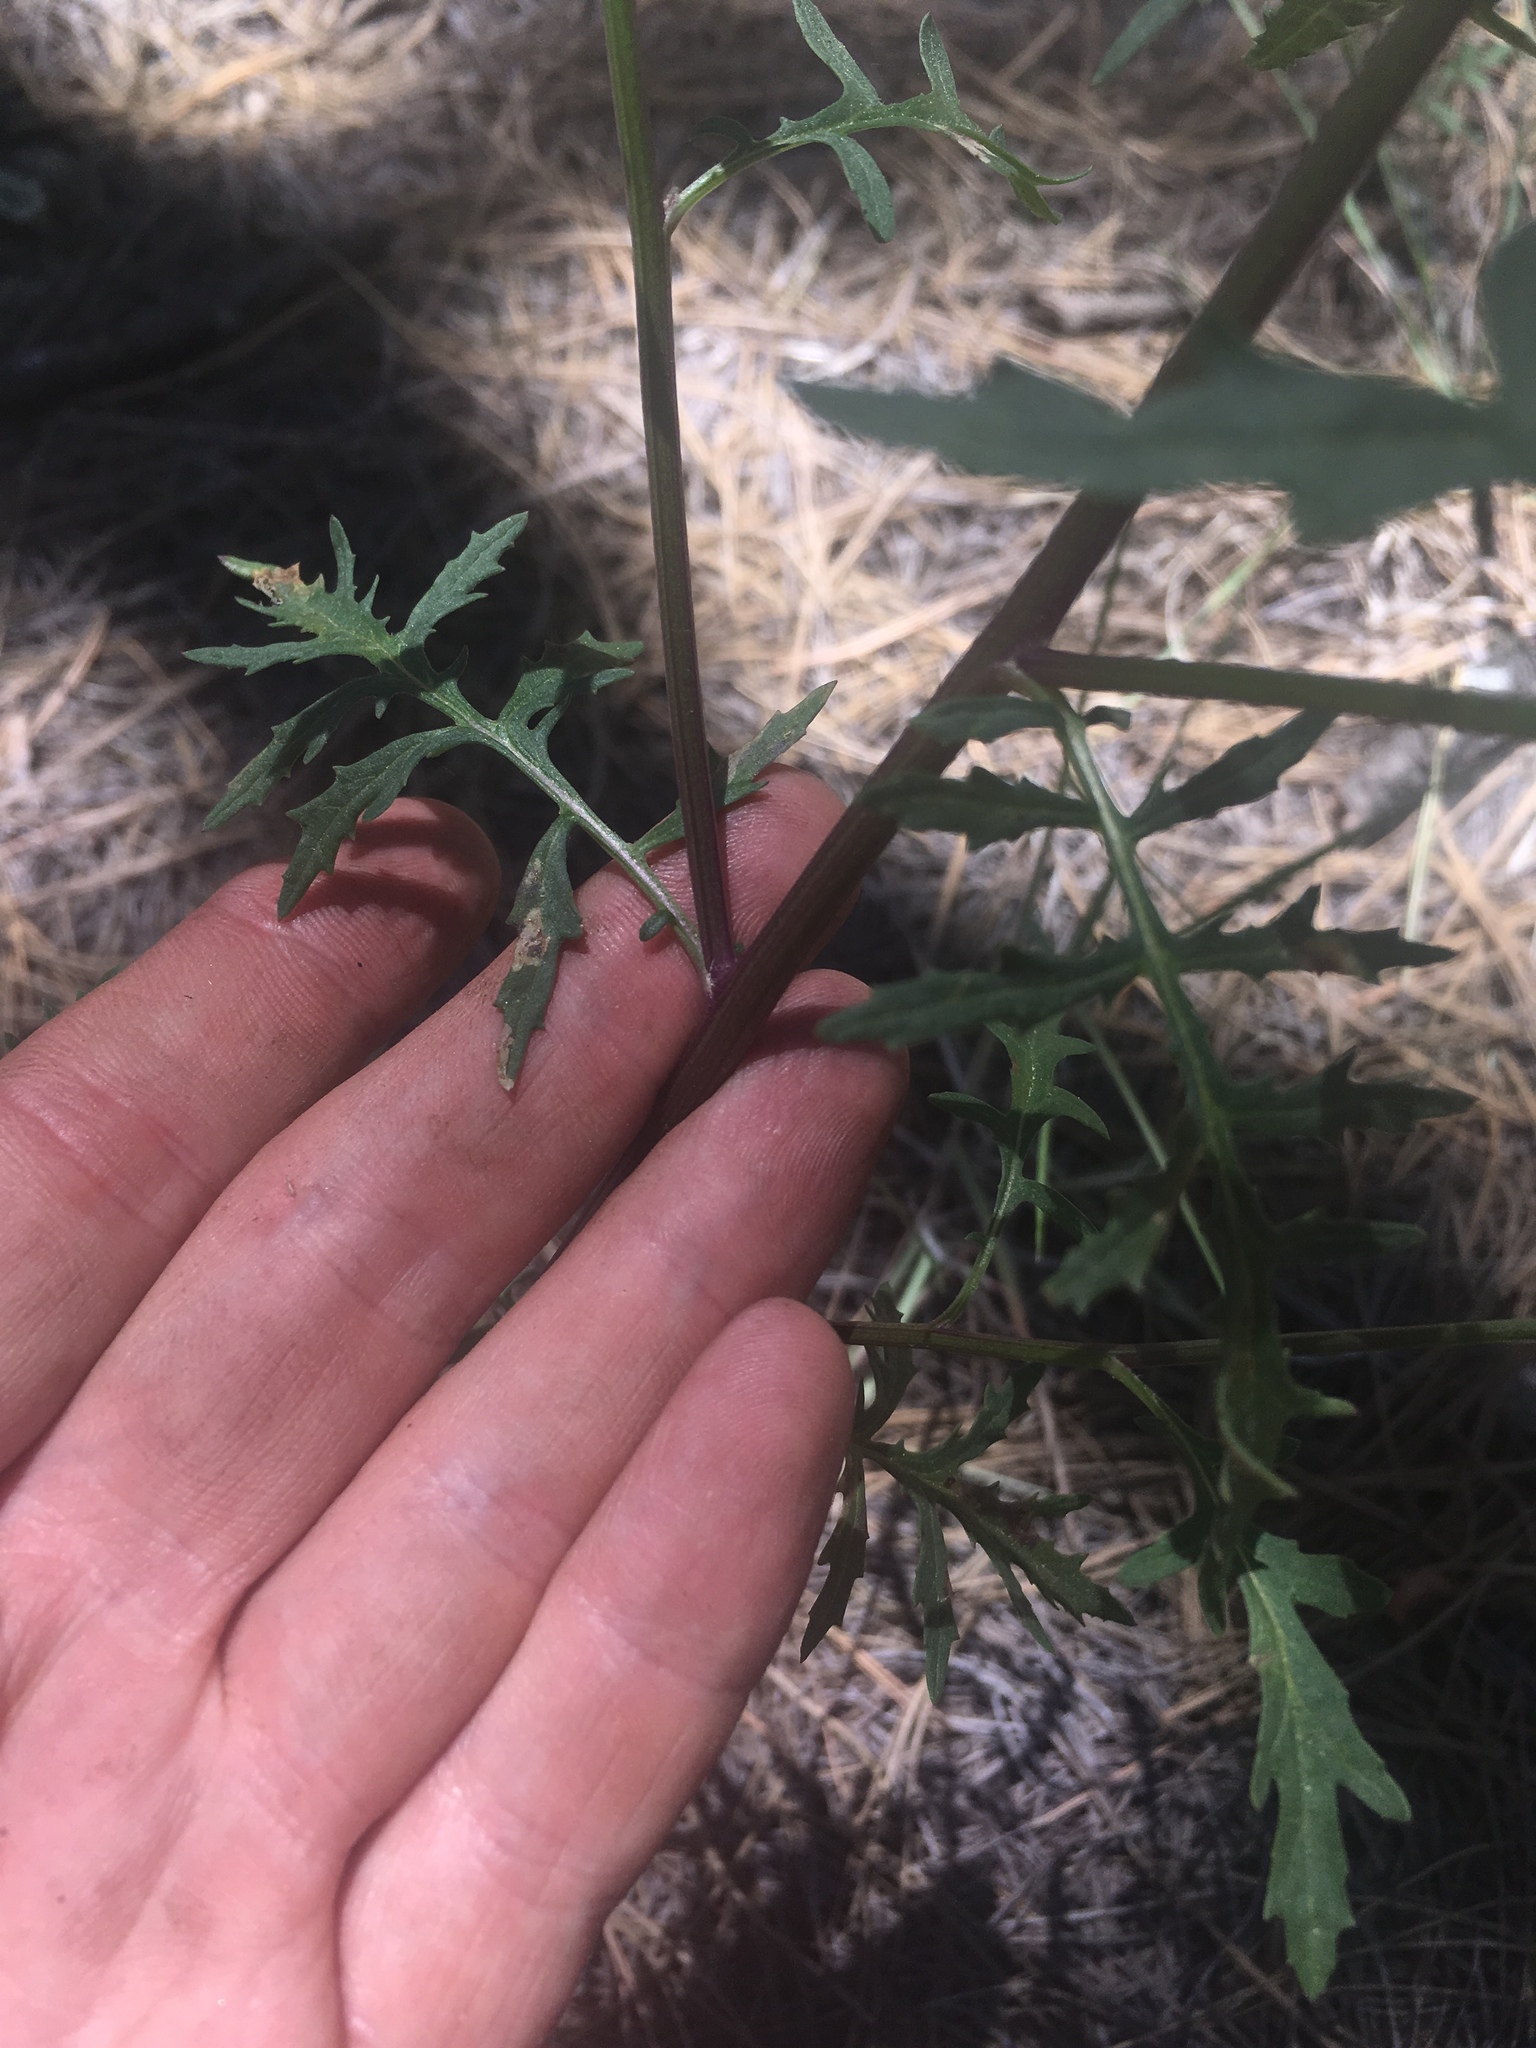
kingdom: Plantae
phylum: Tracheophyta
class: Magnoliopsida
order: Asterales
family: Asteraceae
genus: Senecio
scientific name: Senecio eremophilus
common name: Desert ragwort
